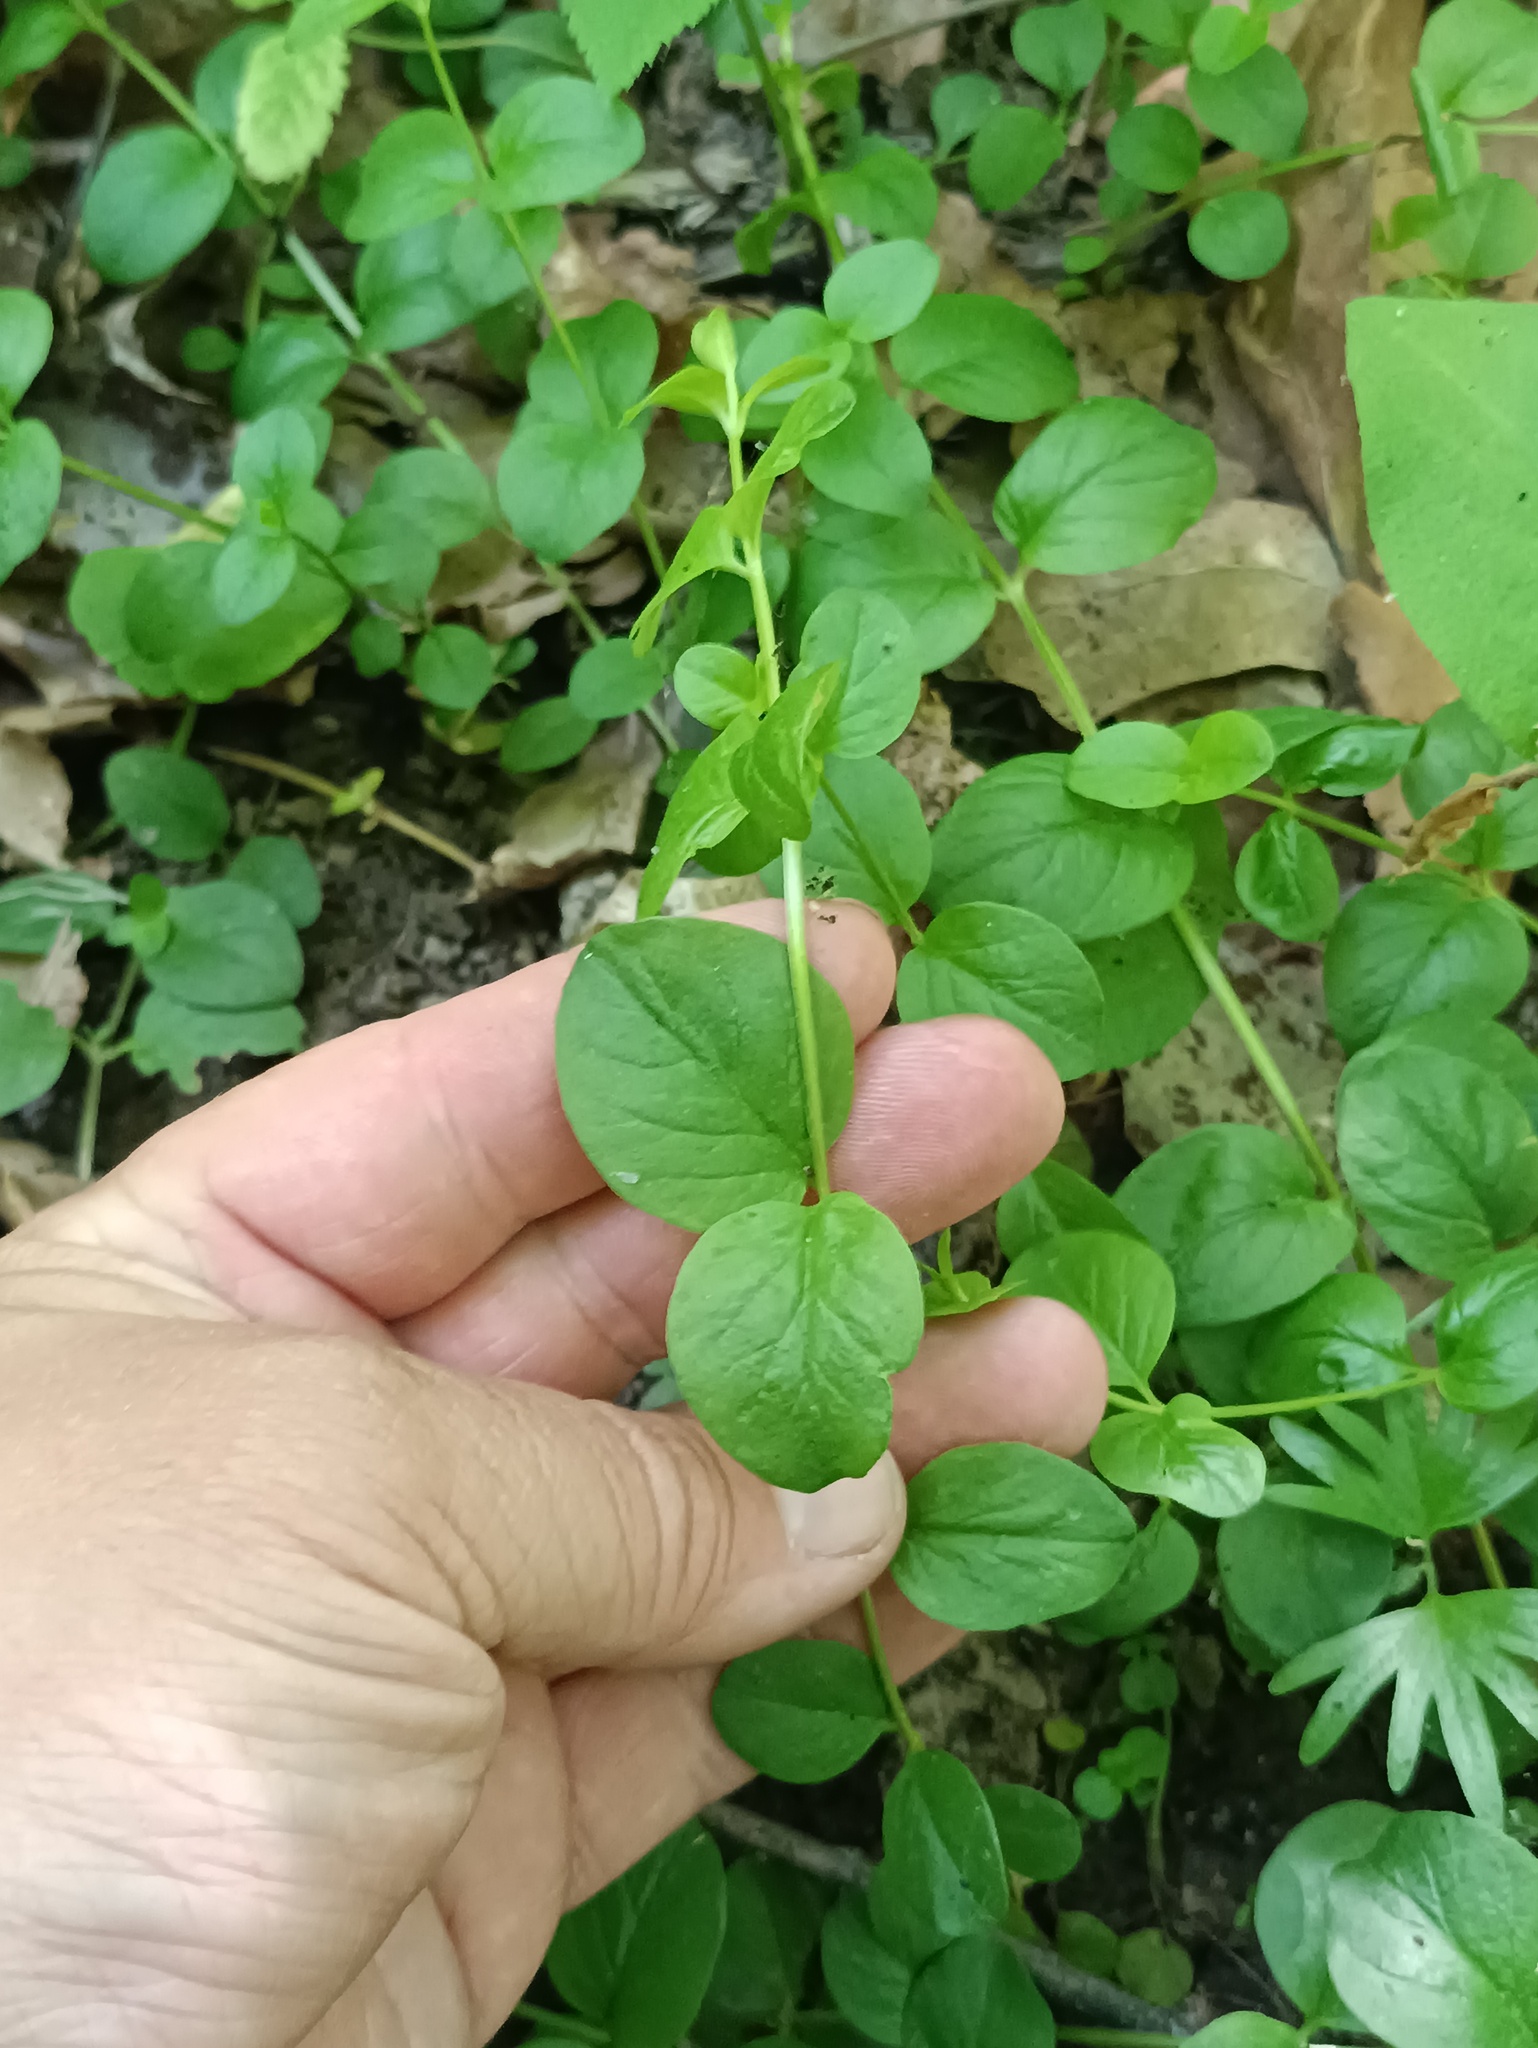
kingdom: Plantae
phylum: Tracheophyta
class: Magnoliopsida
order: Ericales
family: Primulaceae
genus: Lysimachia
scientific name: Lysimachia nummularia
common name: Moneywort
